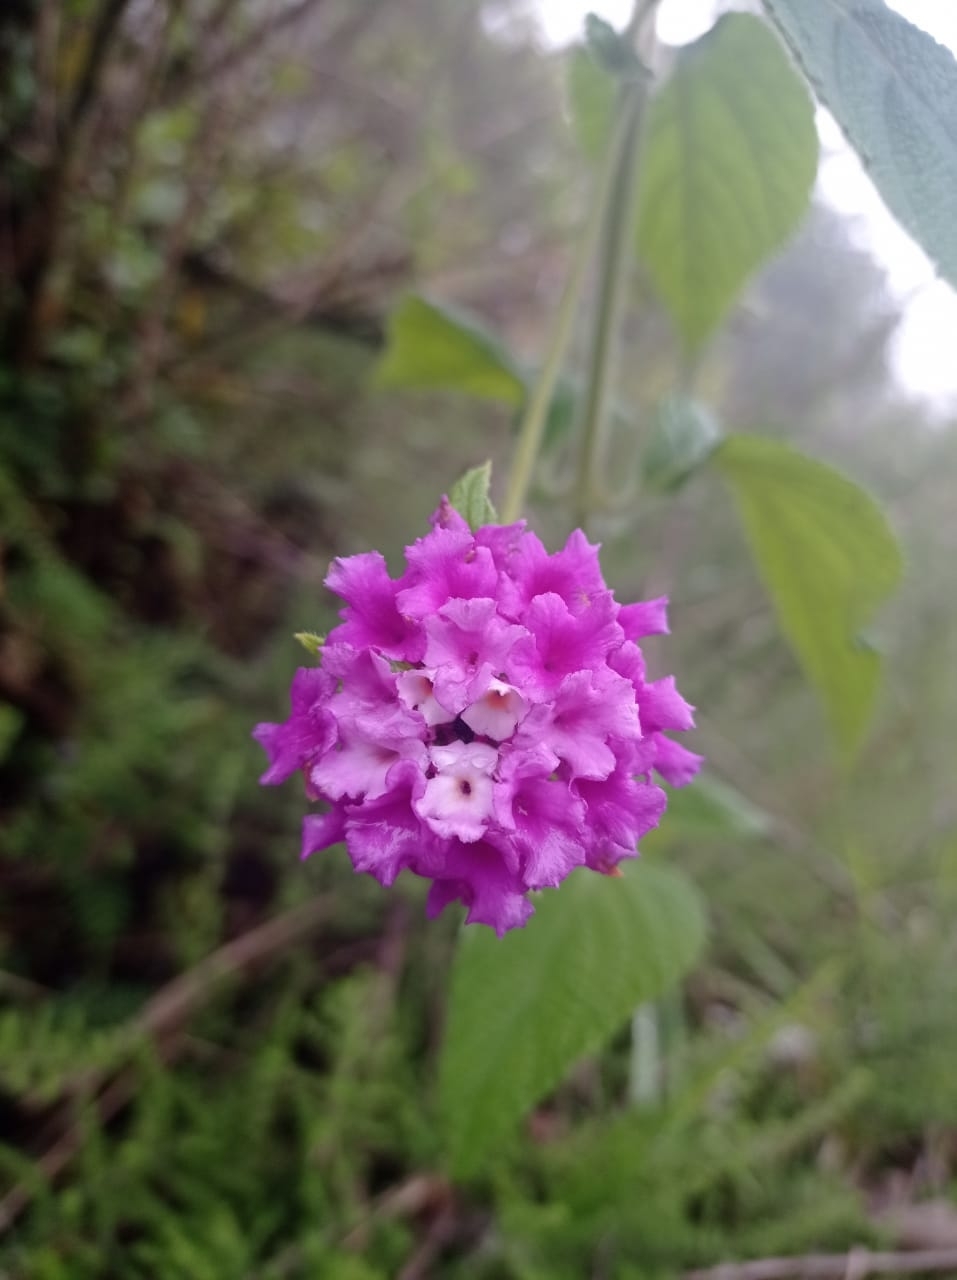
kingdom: Plantae
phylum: Tracheophyta
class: Magnoliopsida
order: Lamiales
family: Verbenaceae
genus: Lantana
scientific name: Lantana rugulosa
